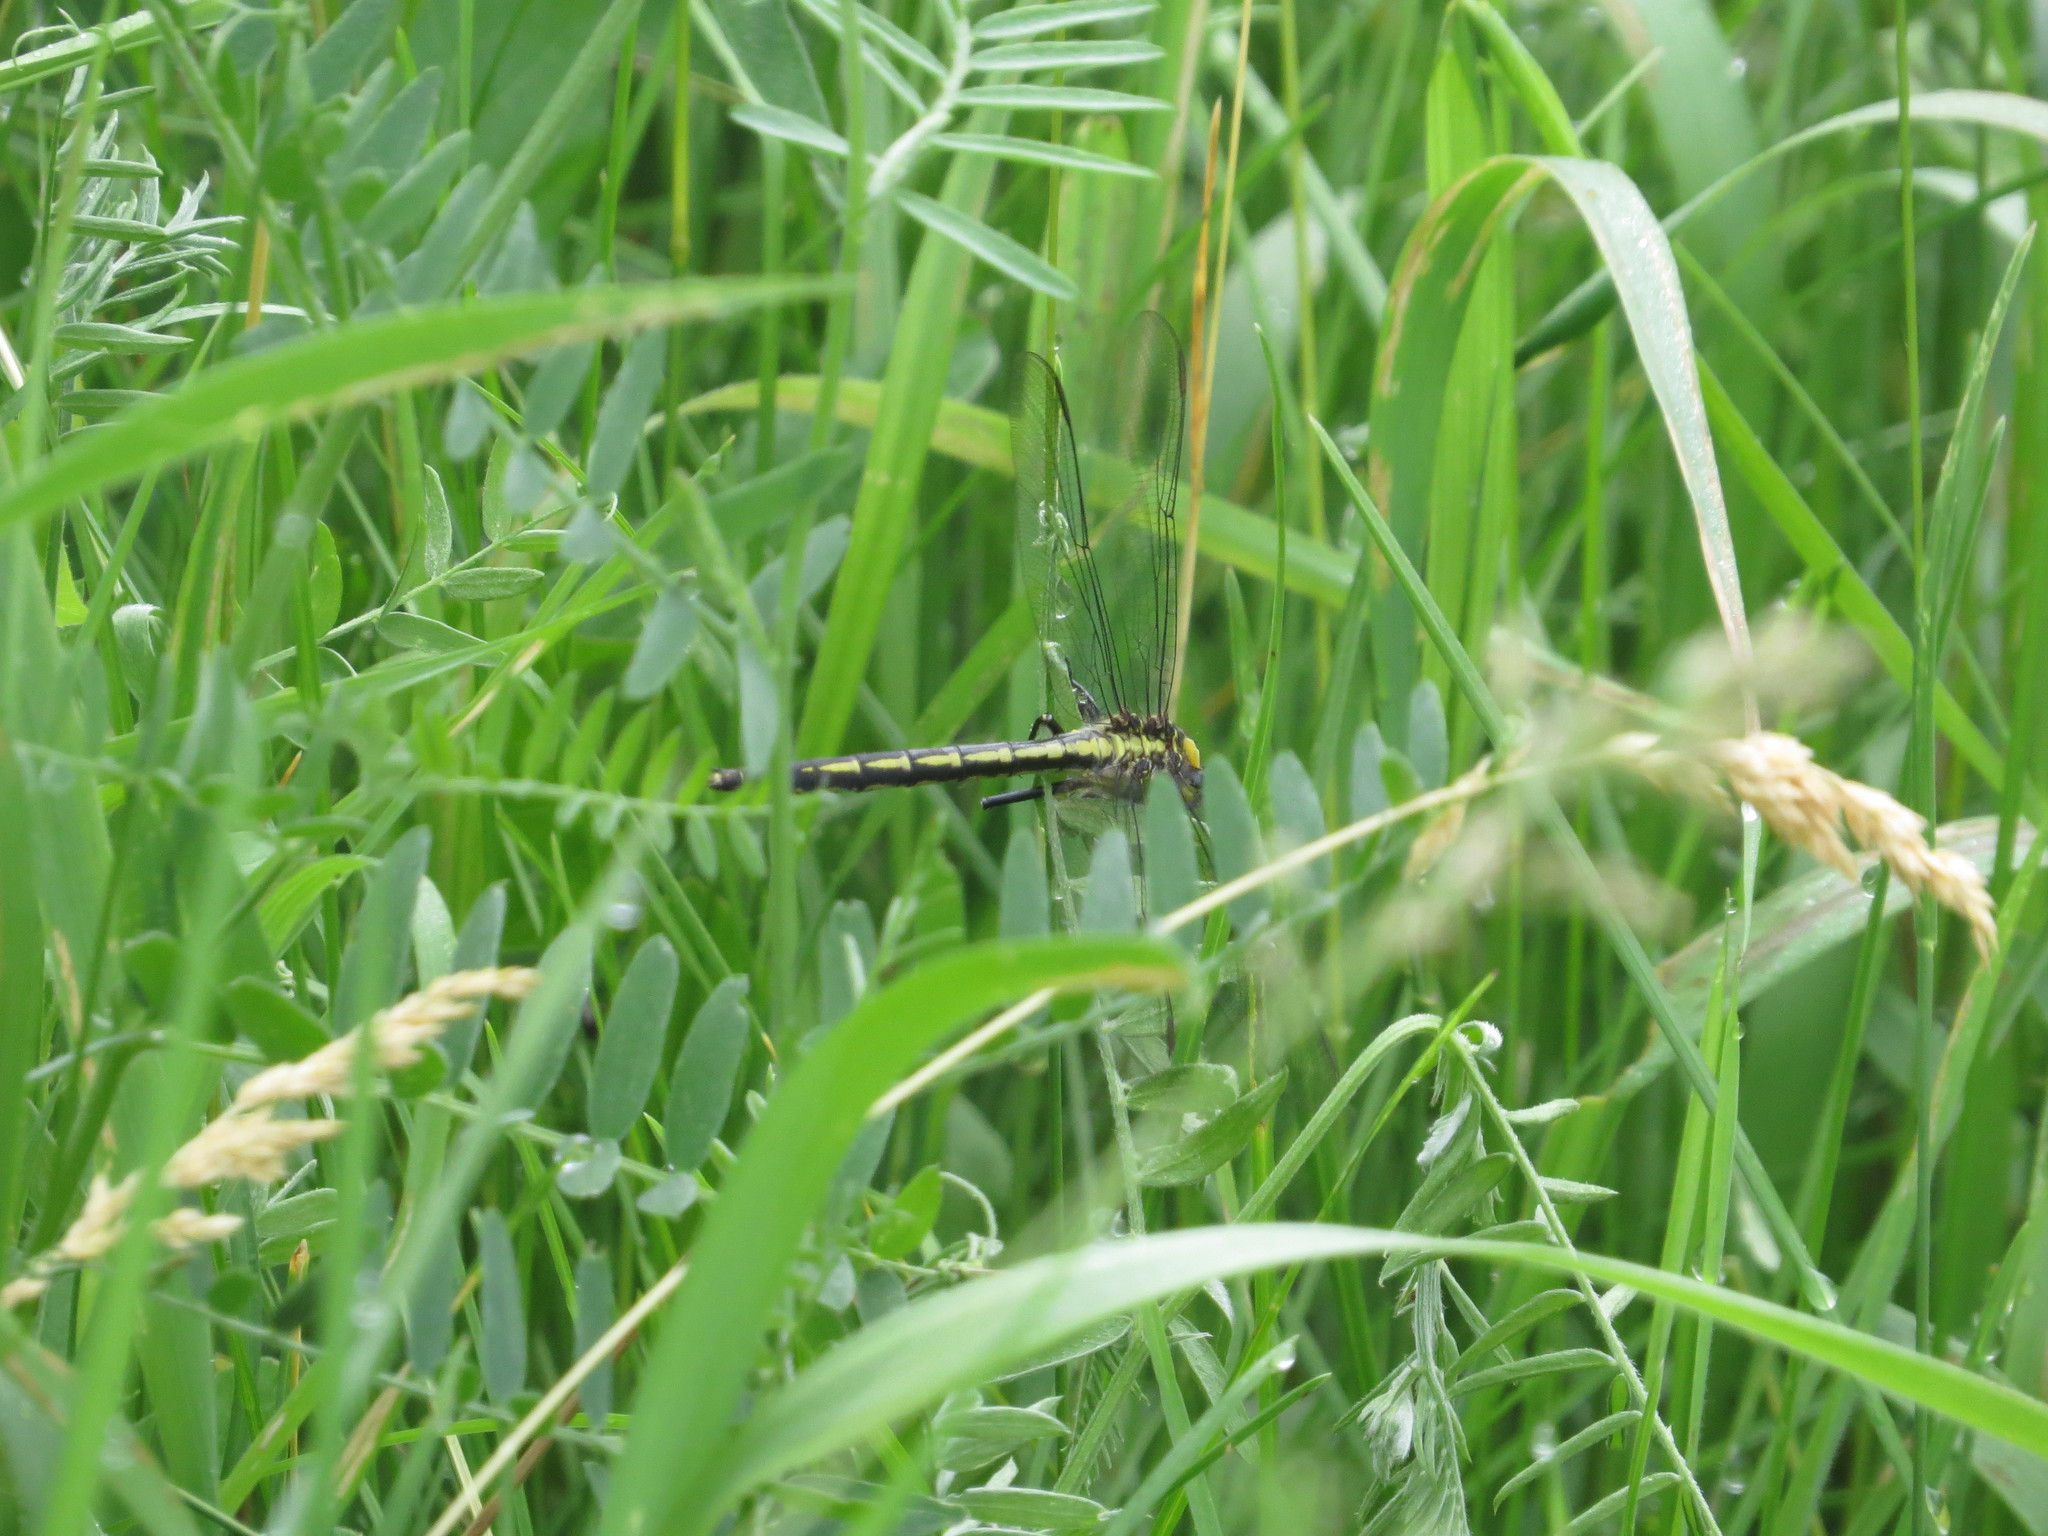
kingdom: Animalia
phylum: Arthropoda
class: Insecta
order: Odonata
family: Gomphidae
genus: Arigomphus
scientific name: Arigomphus cornutus
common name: Horned clubtail
